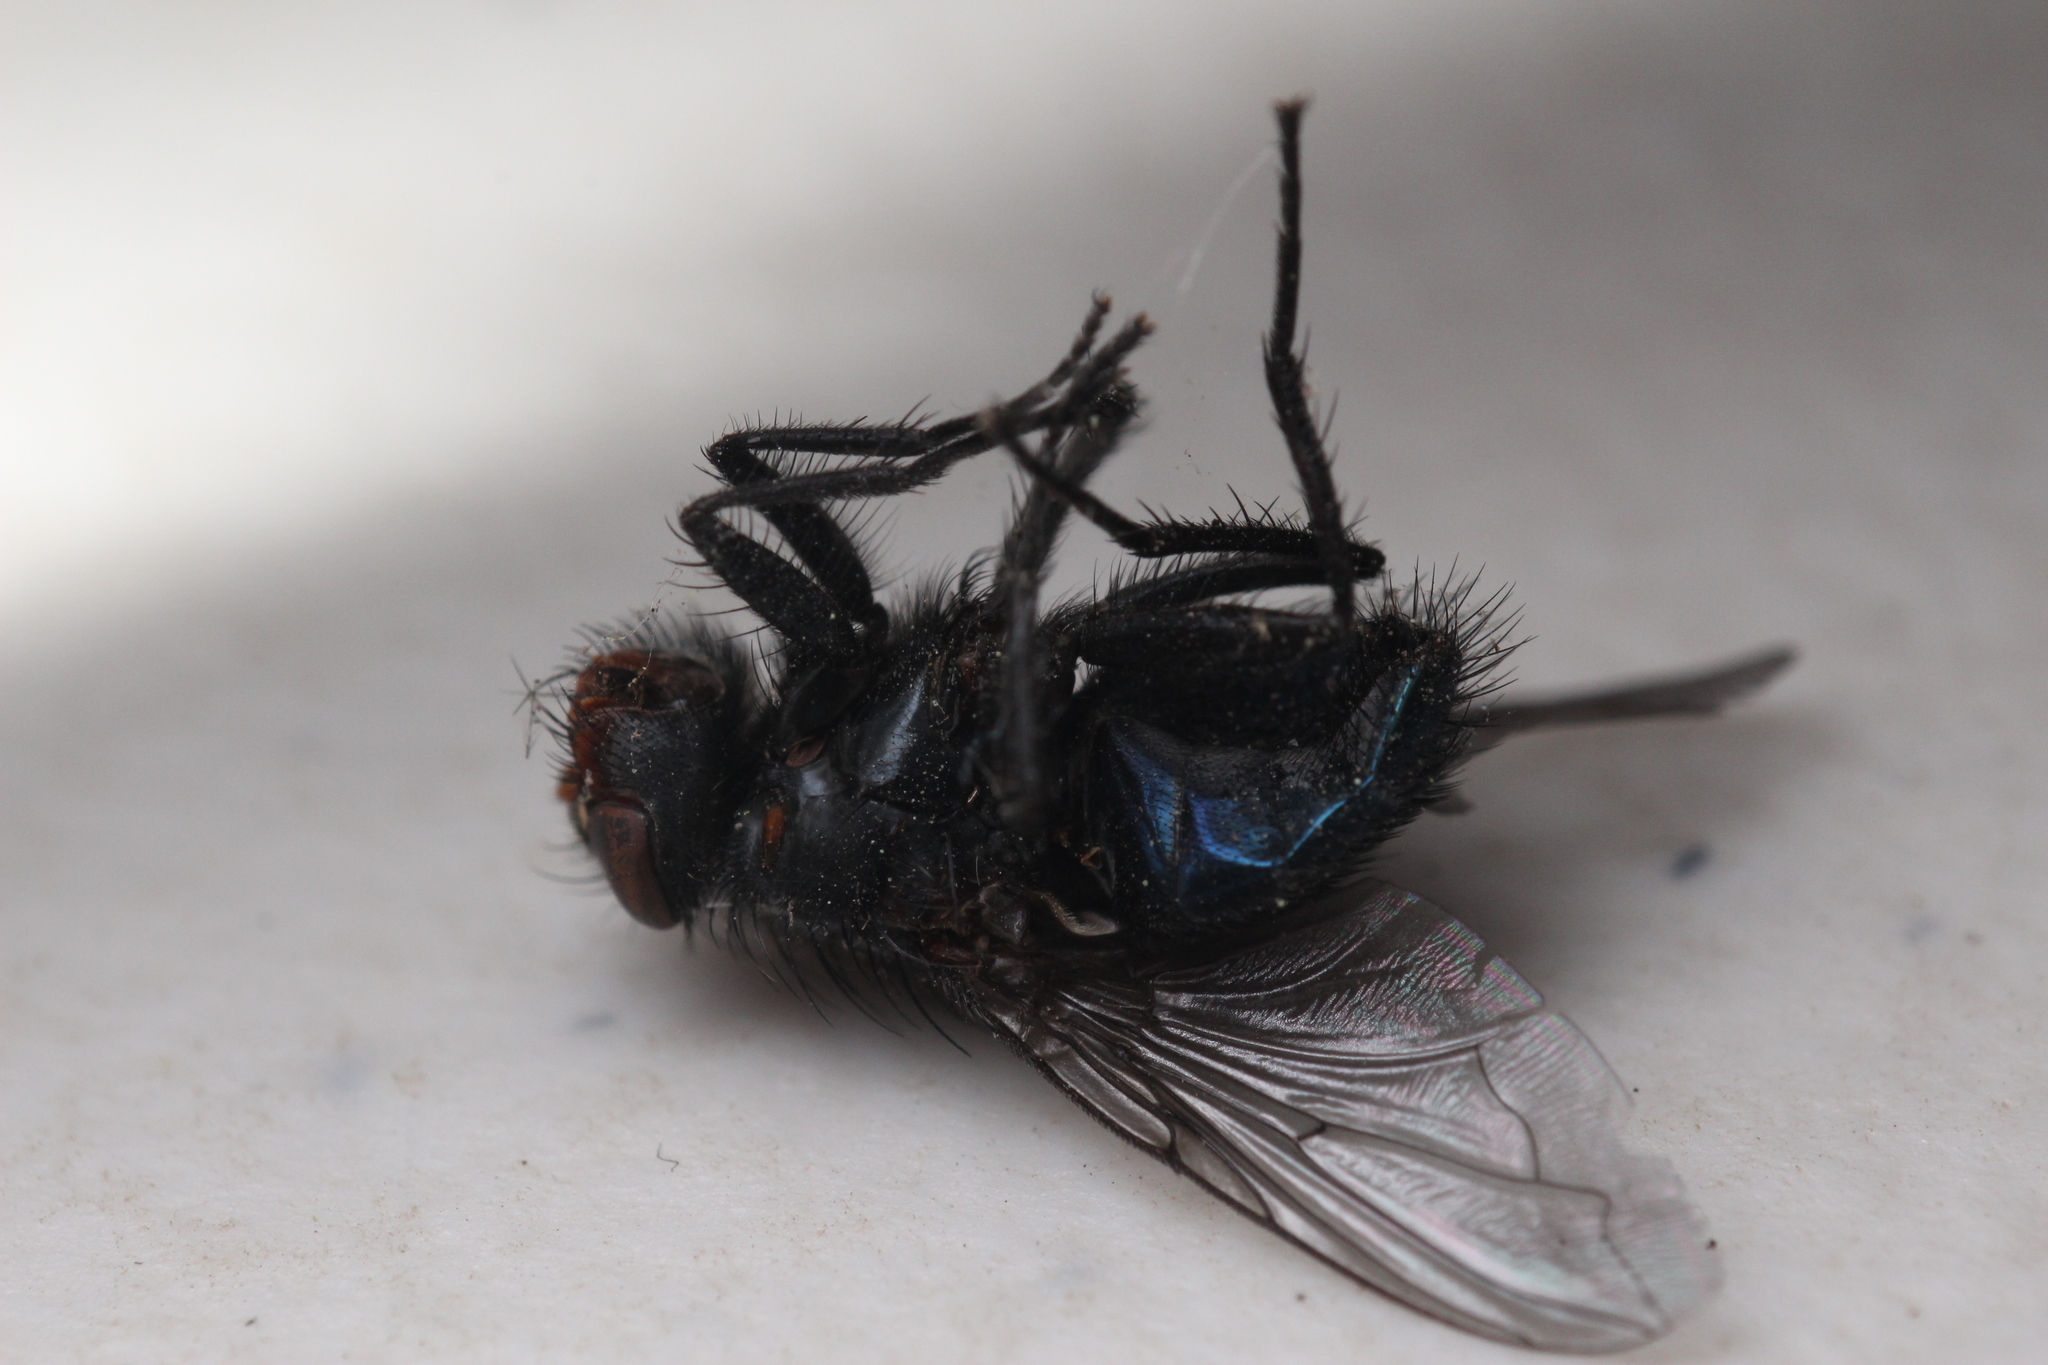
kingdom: Animalia
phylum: Arthropoda
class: Insecta
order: Diptera
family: Calliphoridae
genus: Calliphora
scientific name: Calliphora vicina
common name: Common blow flie
